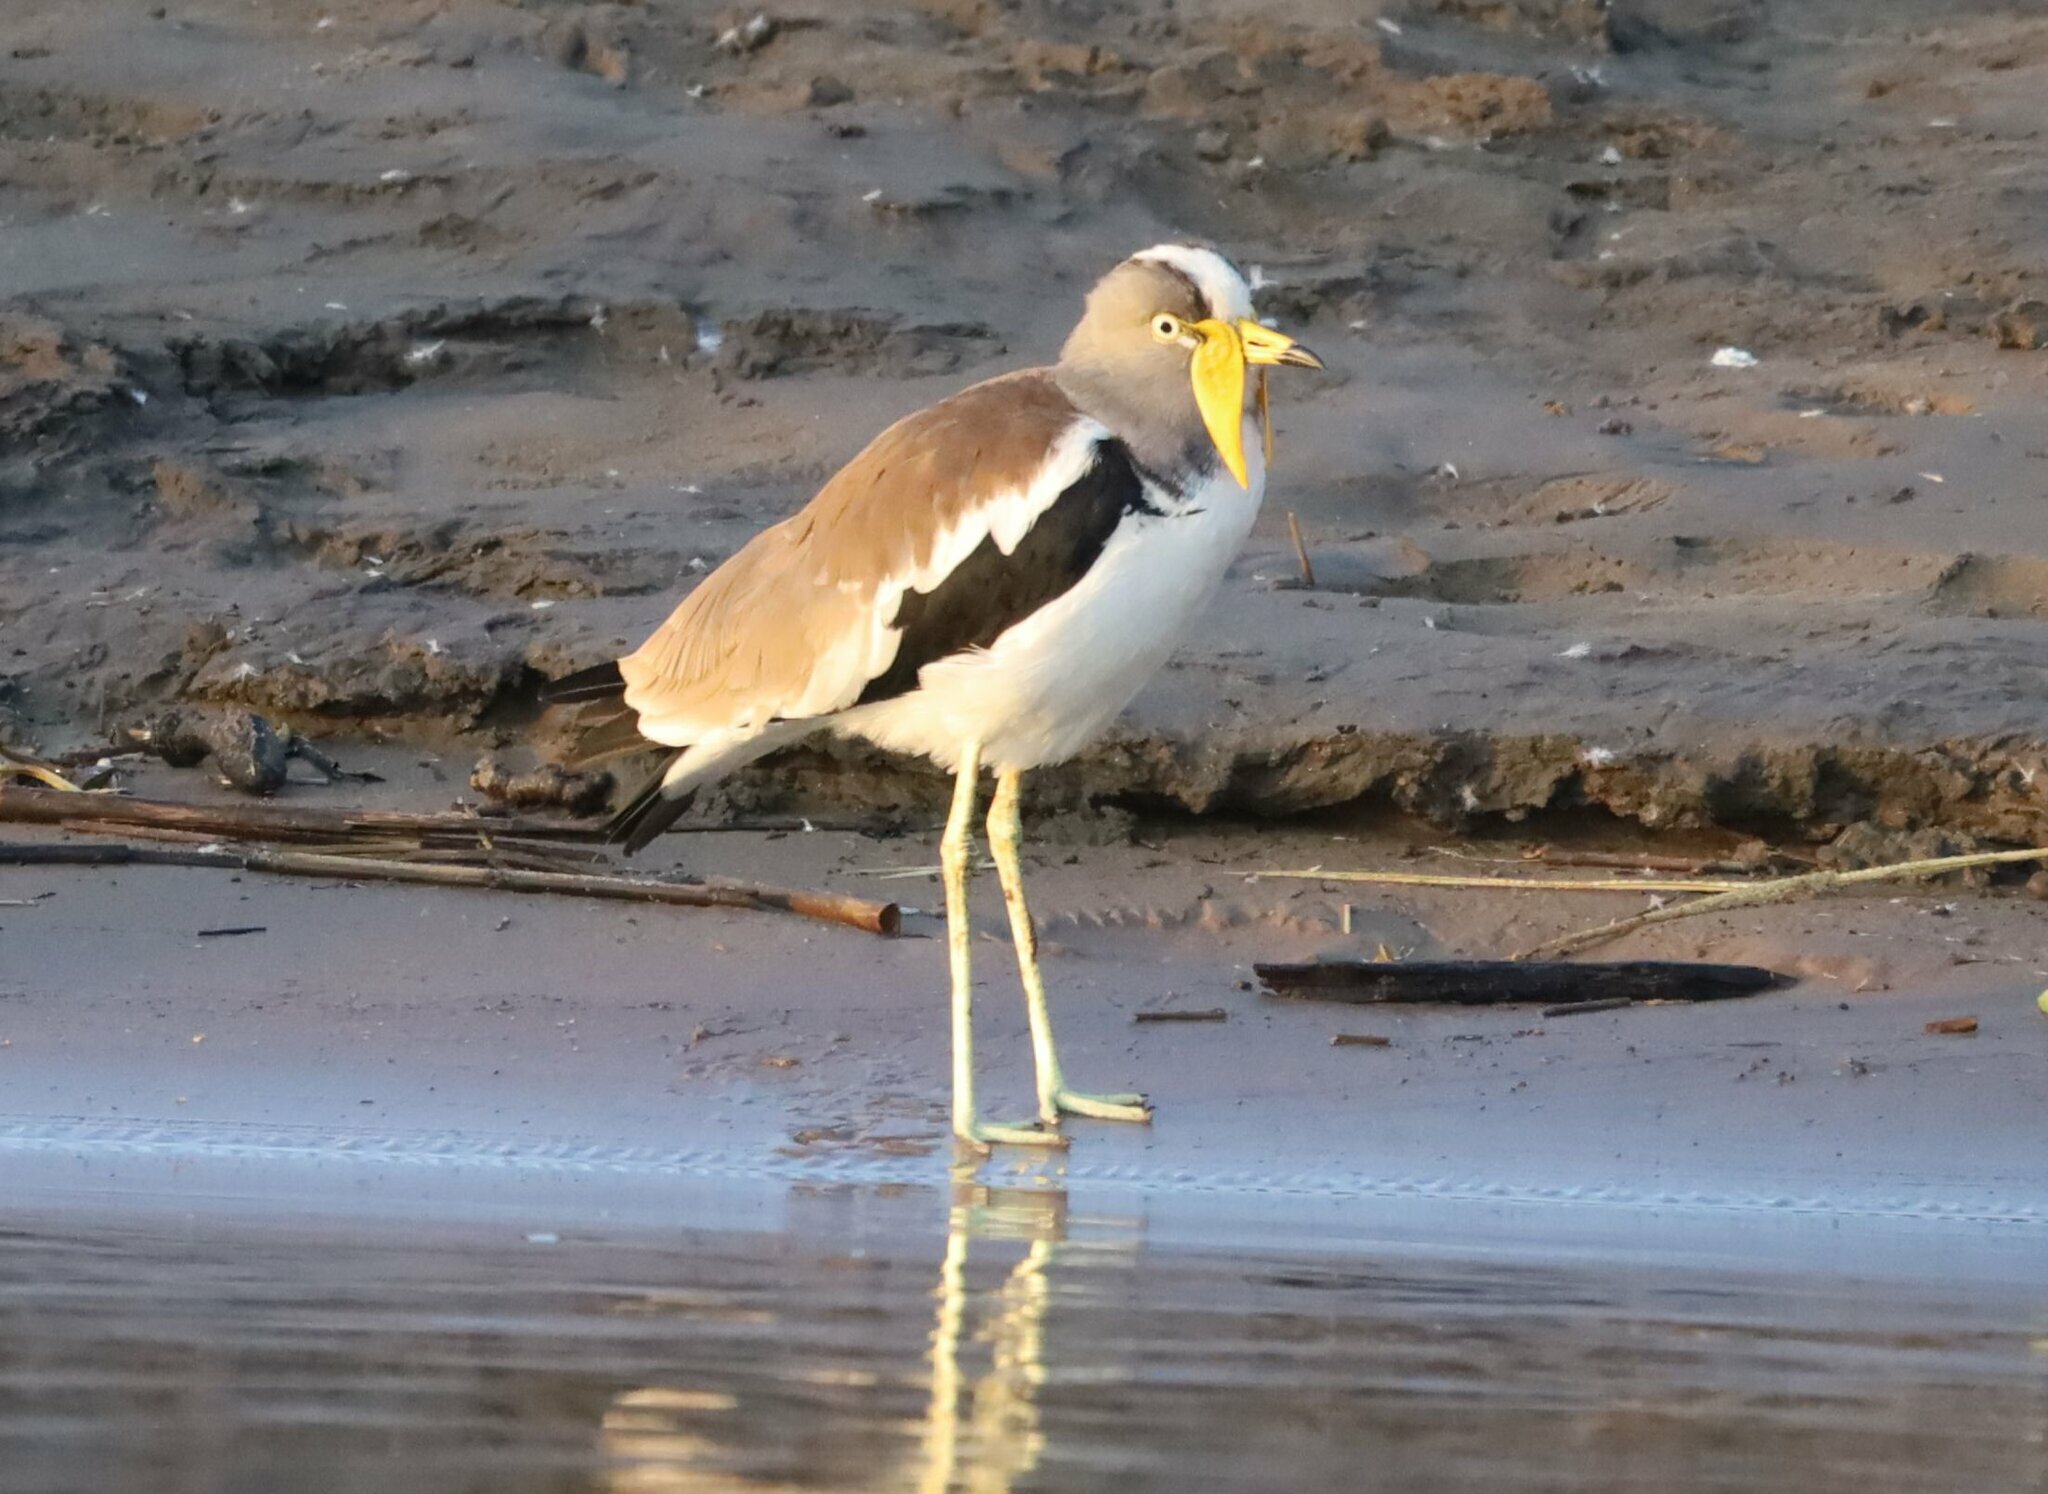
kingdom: Animalia
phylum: Chordata
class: Aves
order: Charadriiformes
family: Charadriidae
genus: Vanellus
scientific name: Vanellus albiceps
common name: White-crowned lapwing
